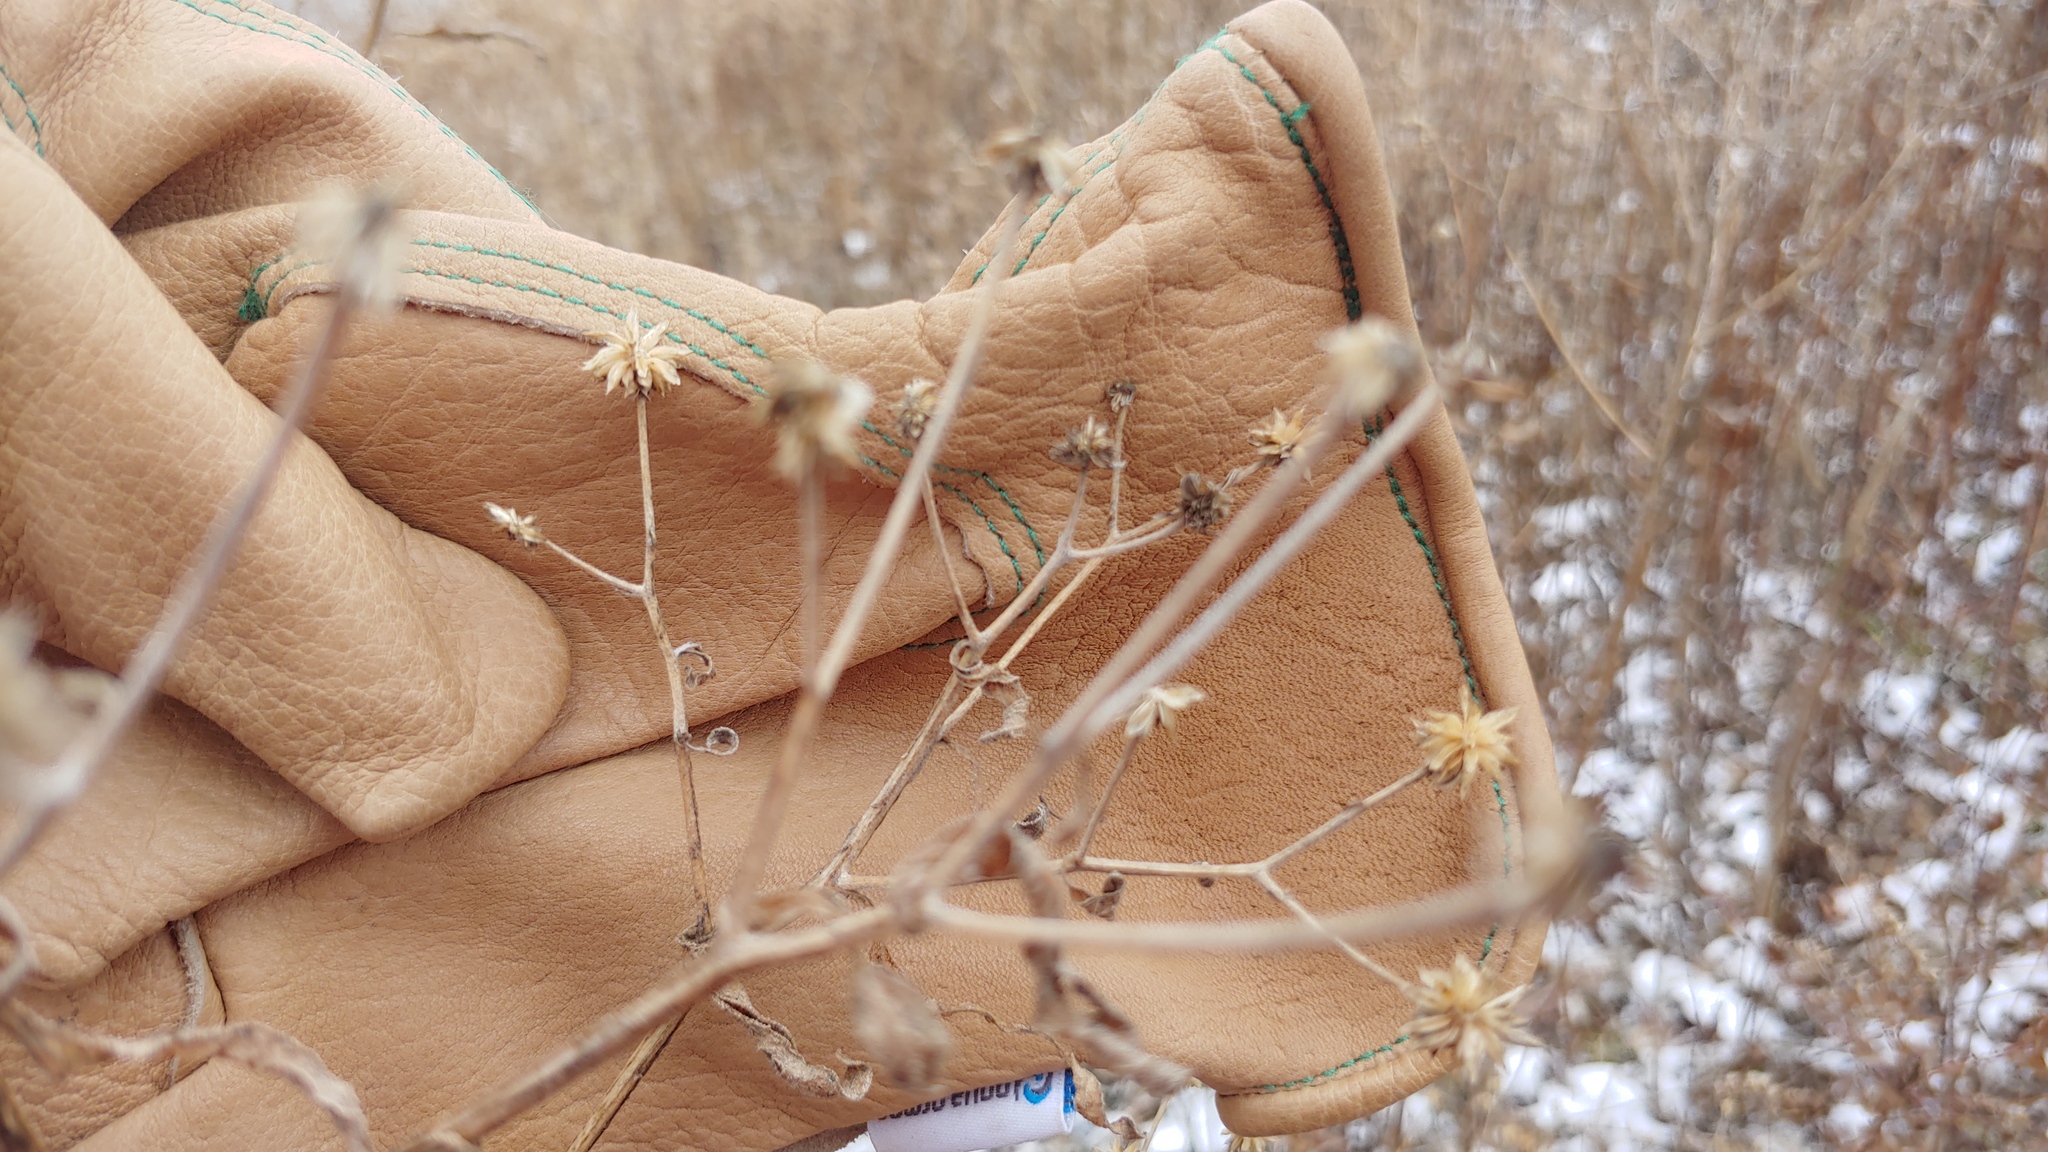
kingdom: Plantae
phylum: Tracheophyta
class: Magnoliopsida
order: Asterales
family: Asteraceae
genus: Verbesina
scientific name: Verbesina alternifolia
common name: Wingstem
